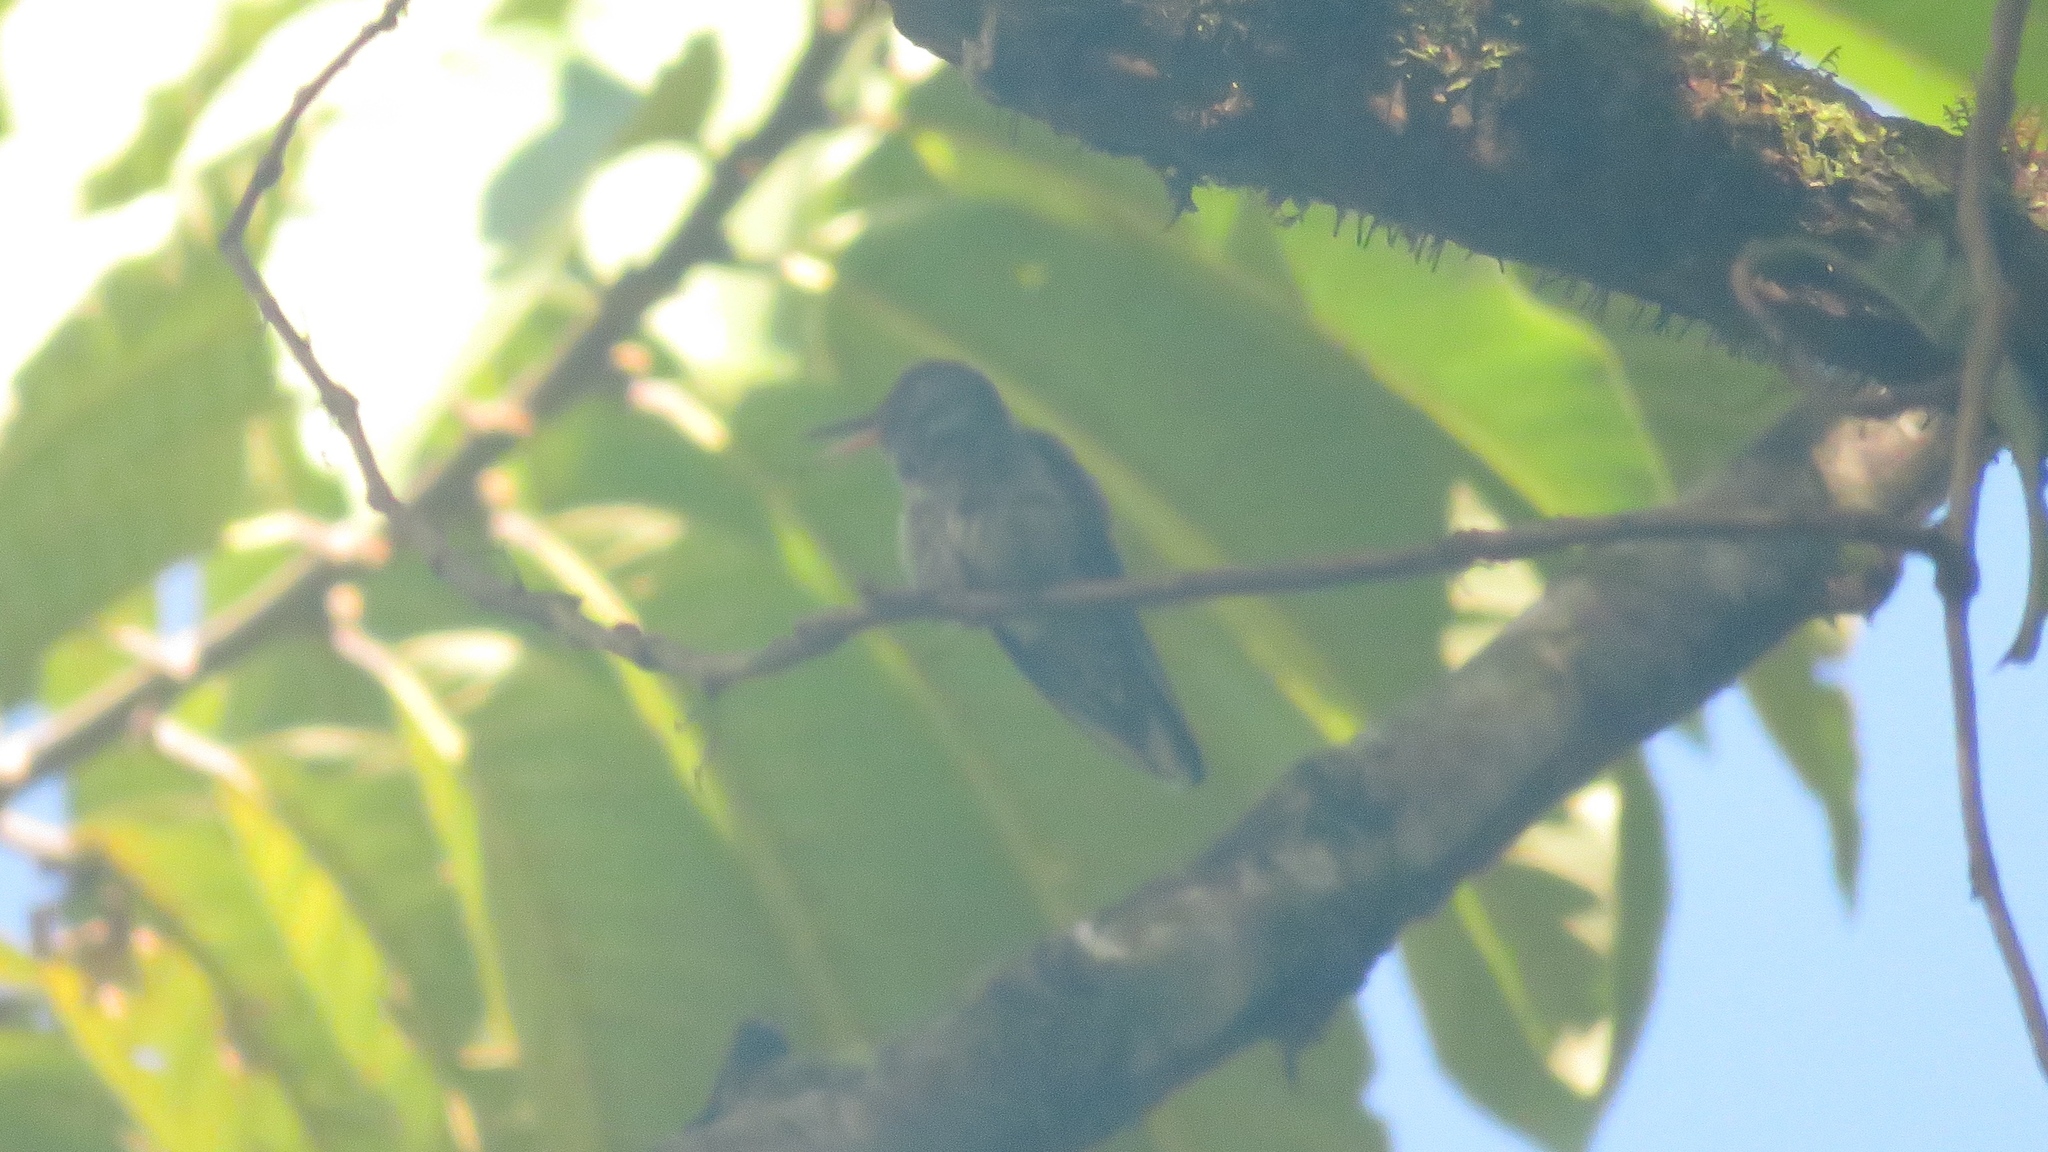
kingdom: Animalia
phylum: Chordata
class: Aves
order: Apodiformes
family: Trochilidae
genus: Phaeochroa
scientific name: Phaeochroa cuvierii
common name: Scaly-breasted hummingbird
